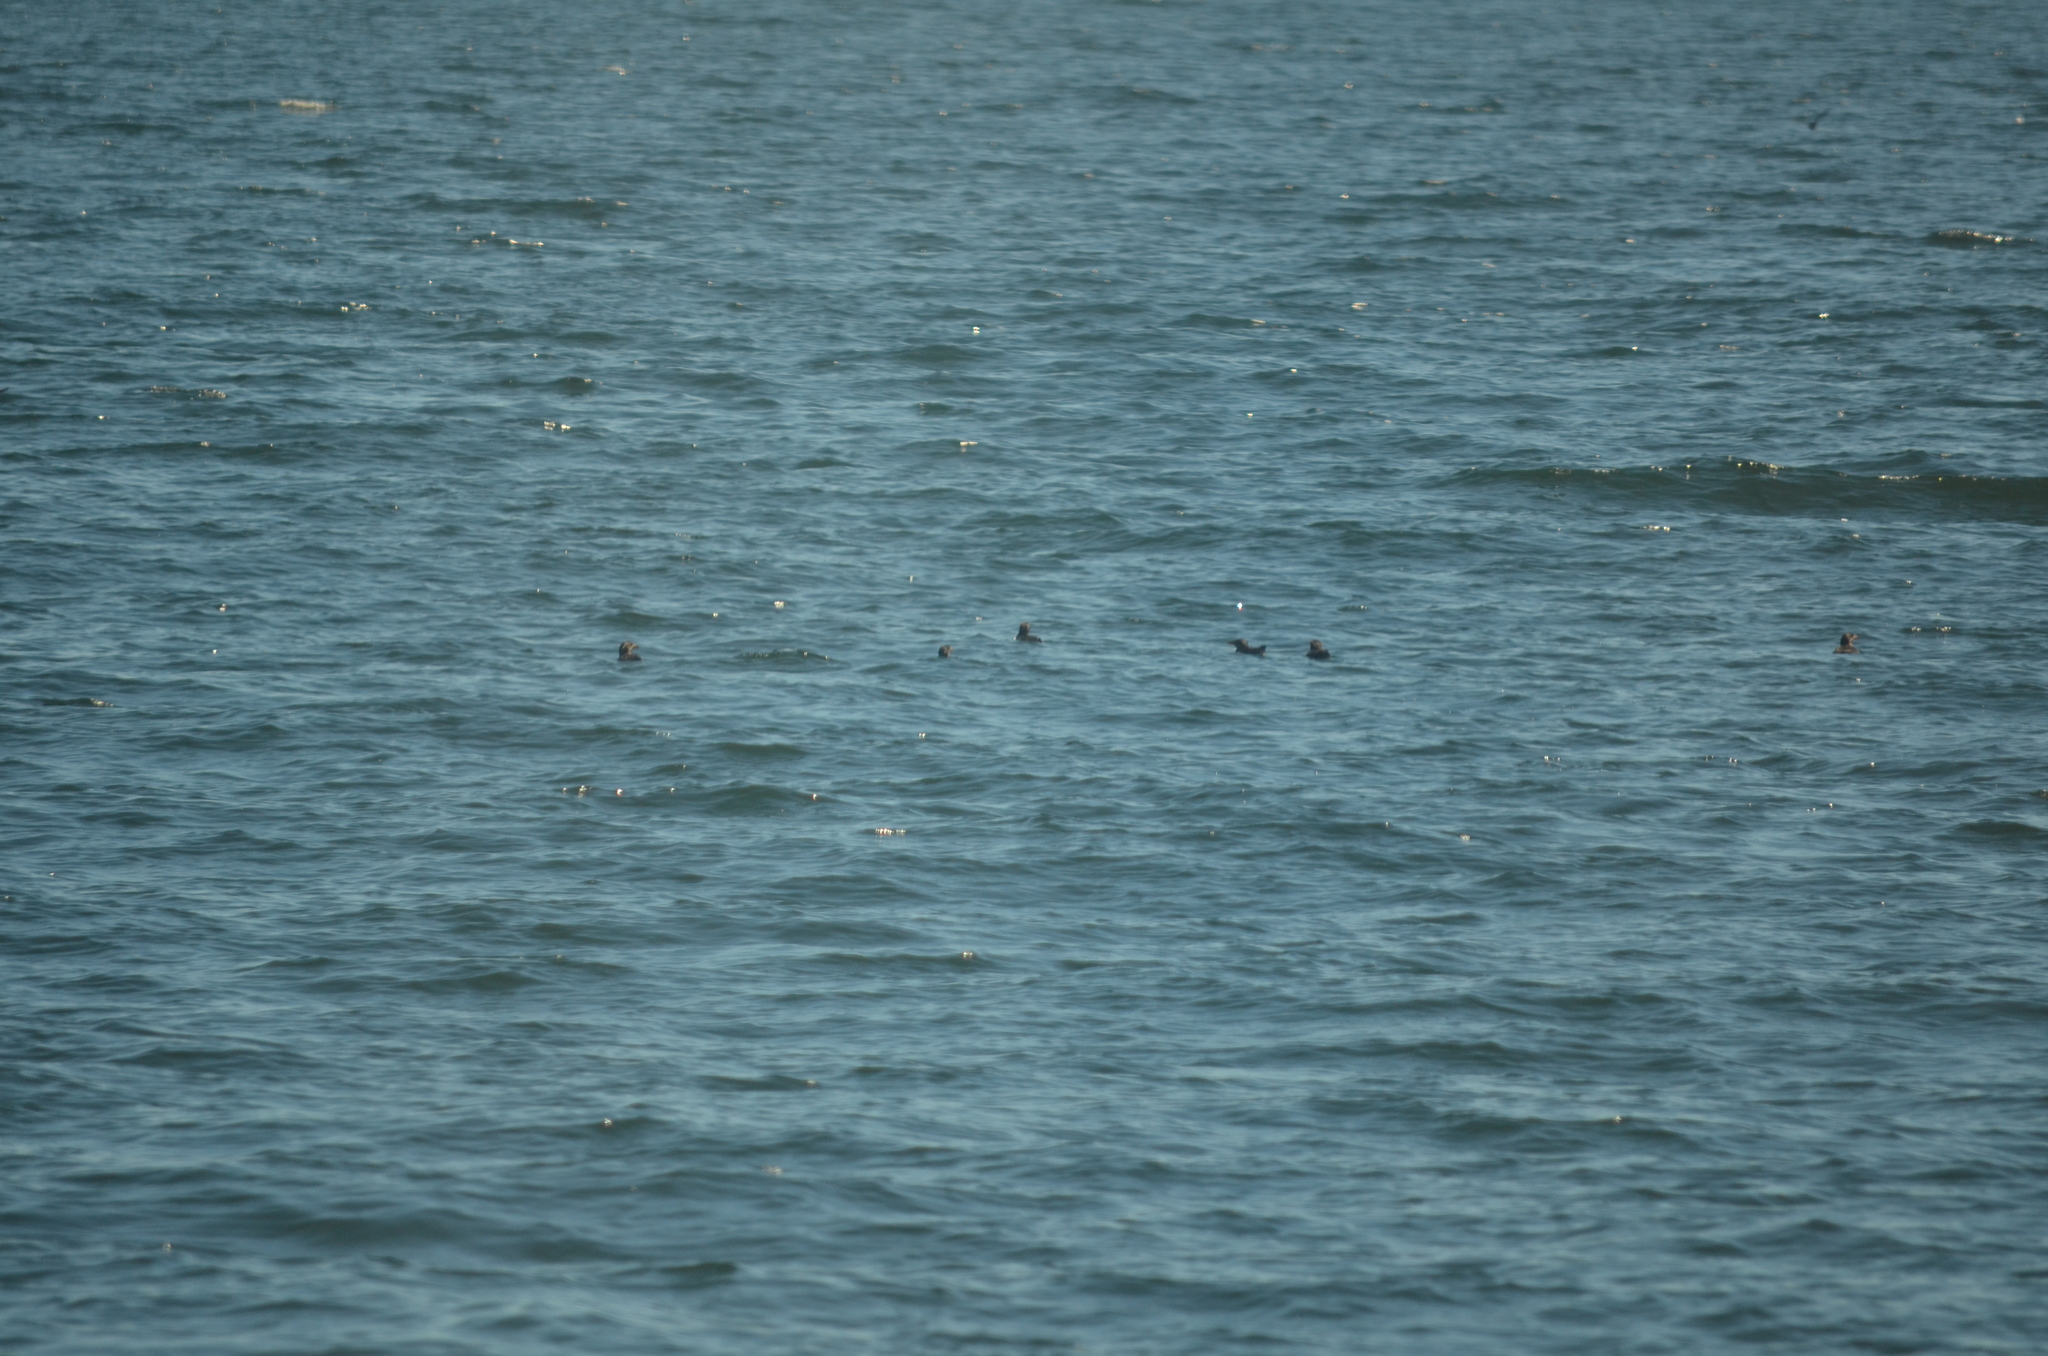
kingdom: Animalia
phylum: Chordata
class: Aves
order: Charadriiformes
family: Alcidae
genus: Cerorhinca
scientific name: Cerorhinca monocerata
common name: Rhinoceros auklet
